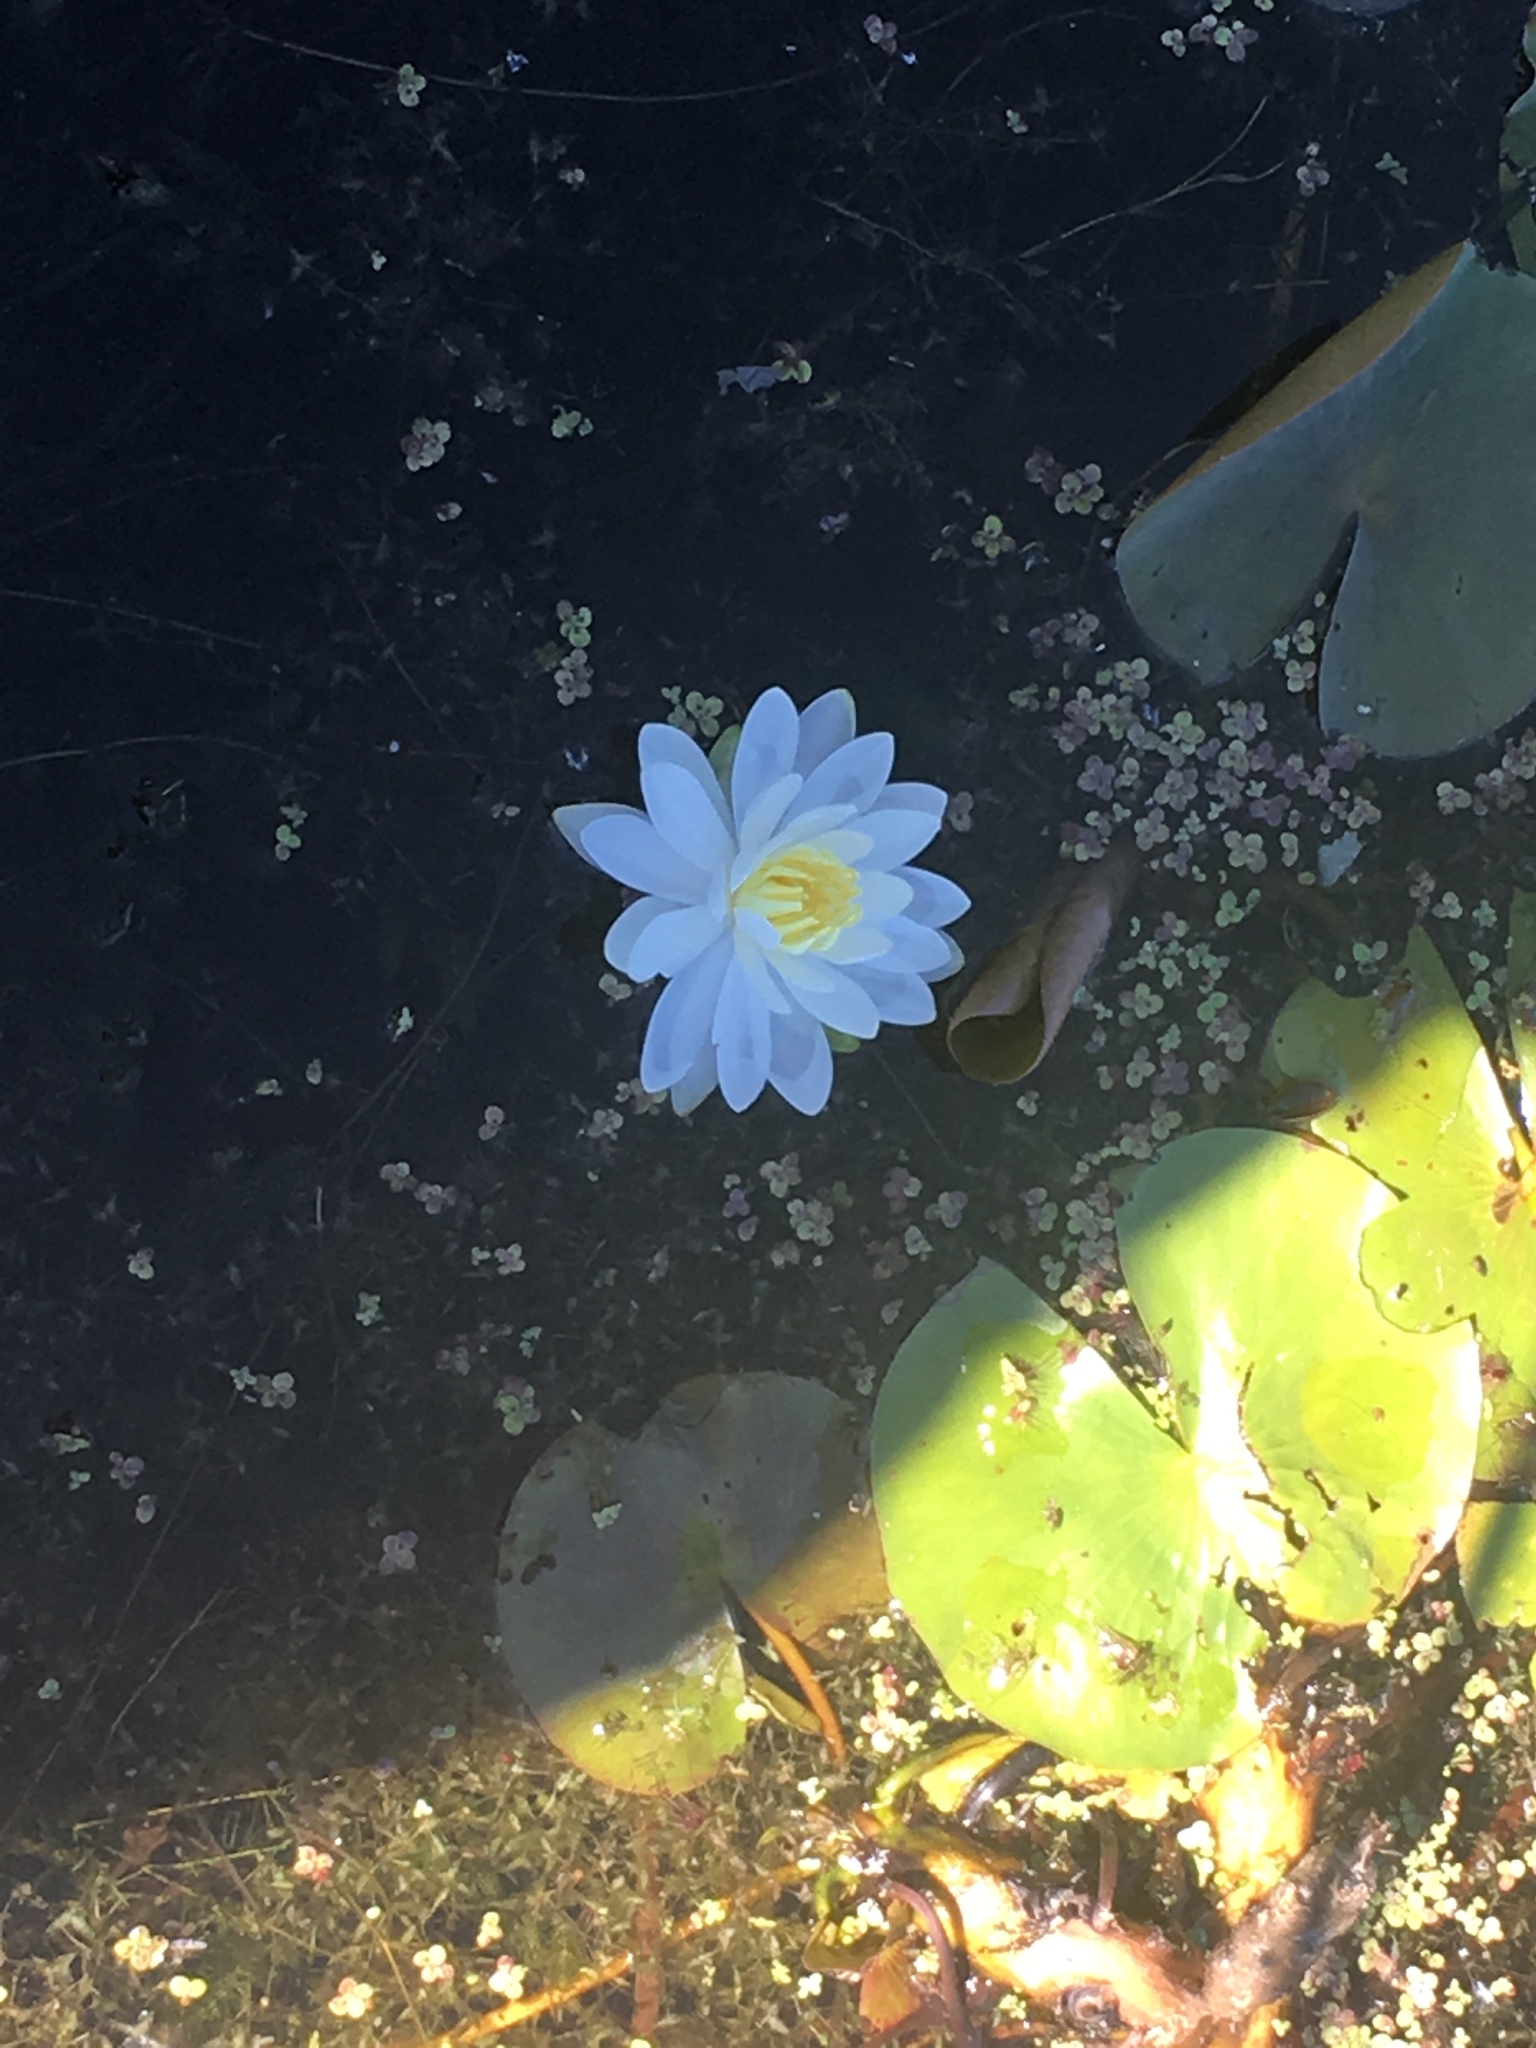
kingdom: Plantae
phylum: Tracheophyta
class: Magnoliopsida
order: Nymphaeales
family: Nymphaeaceae
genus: Nymphaea
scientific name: Nymphaea odorata
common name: Fragrant water-lily
